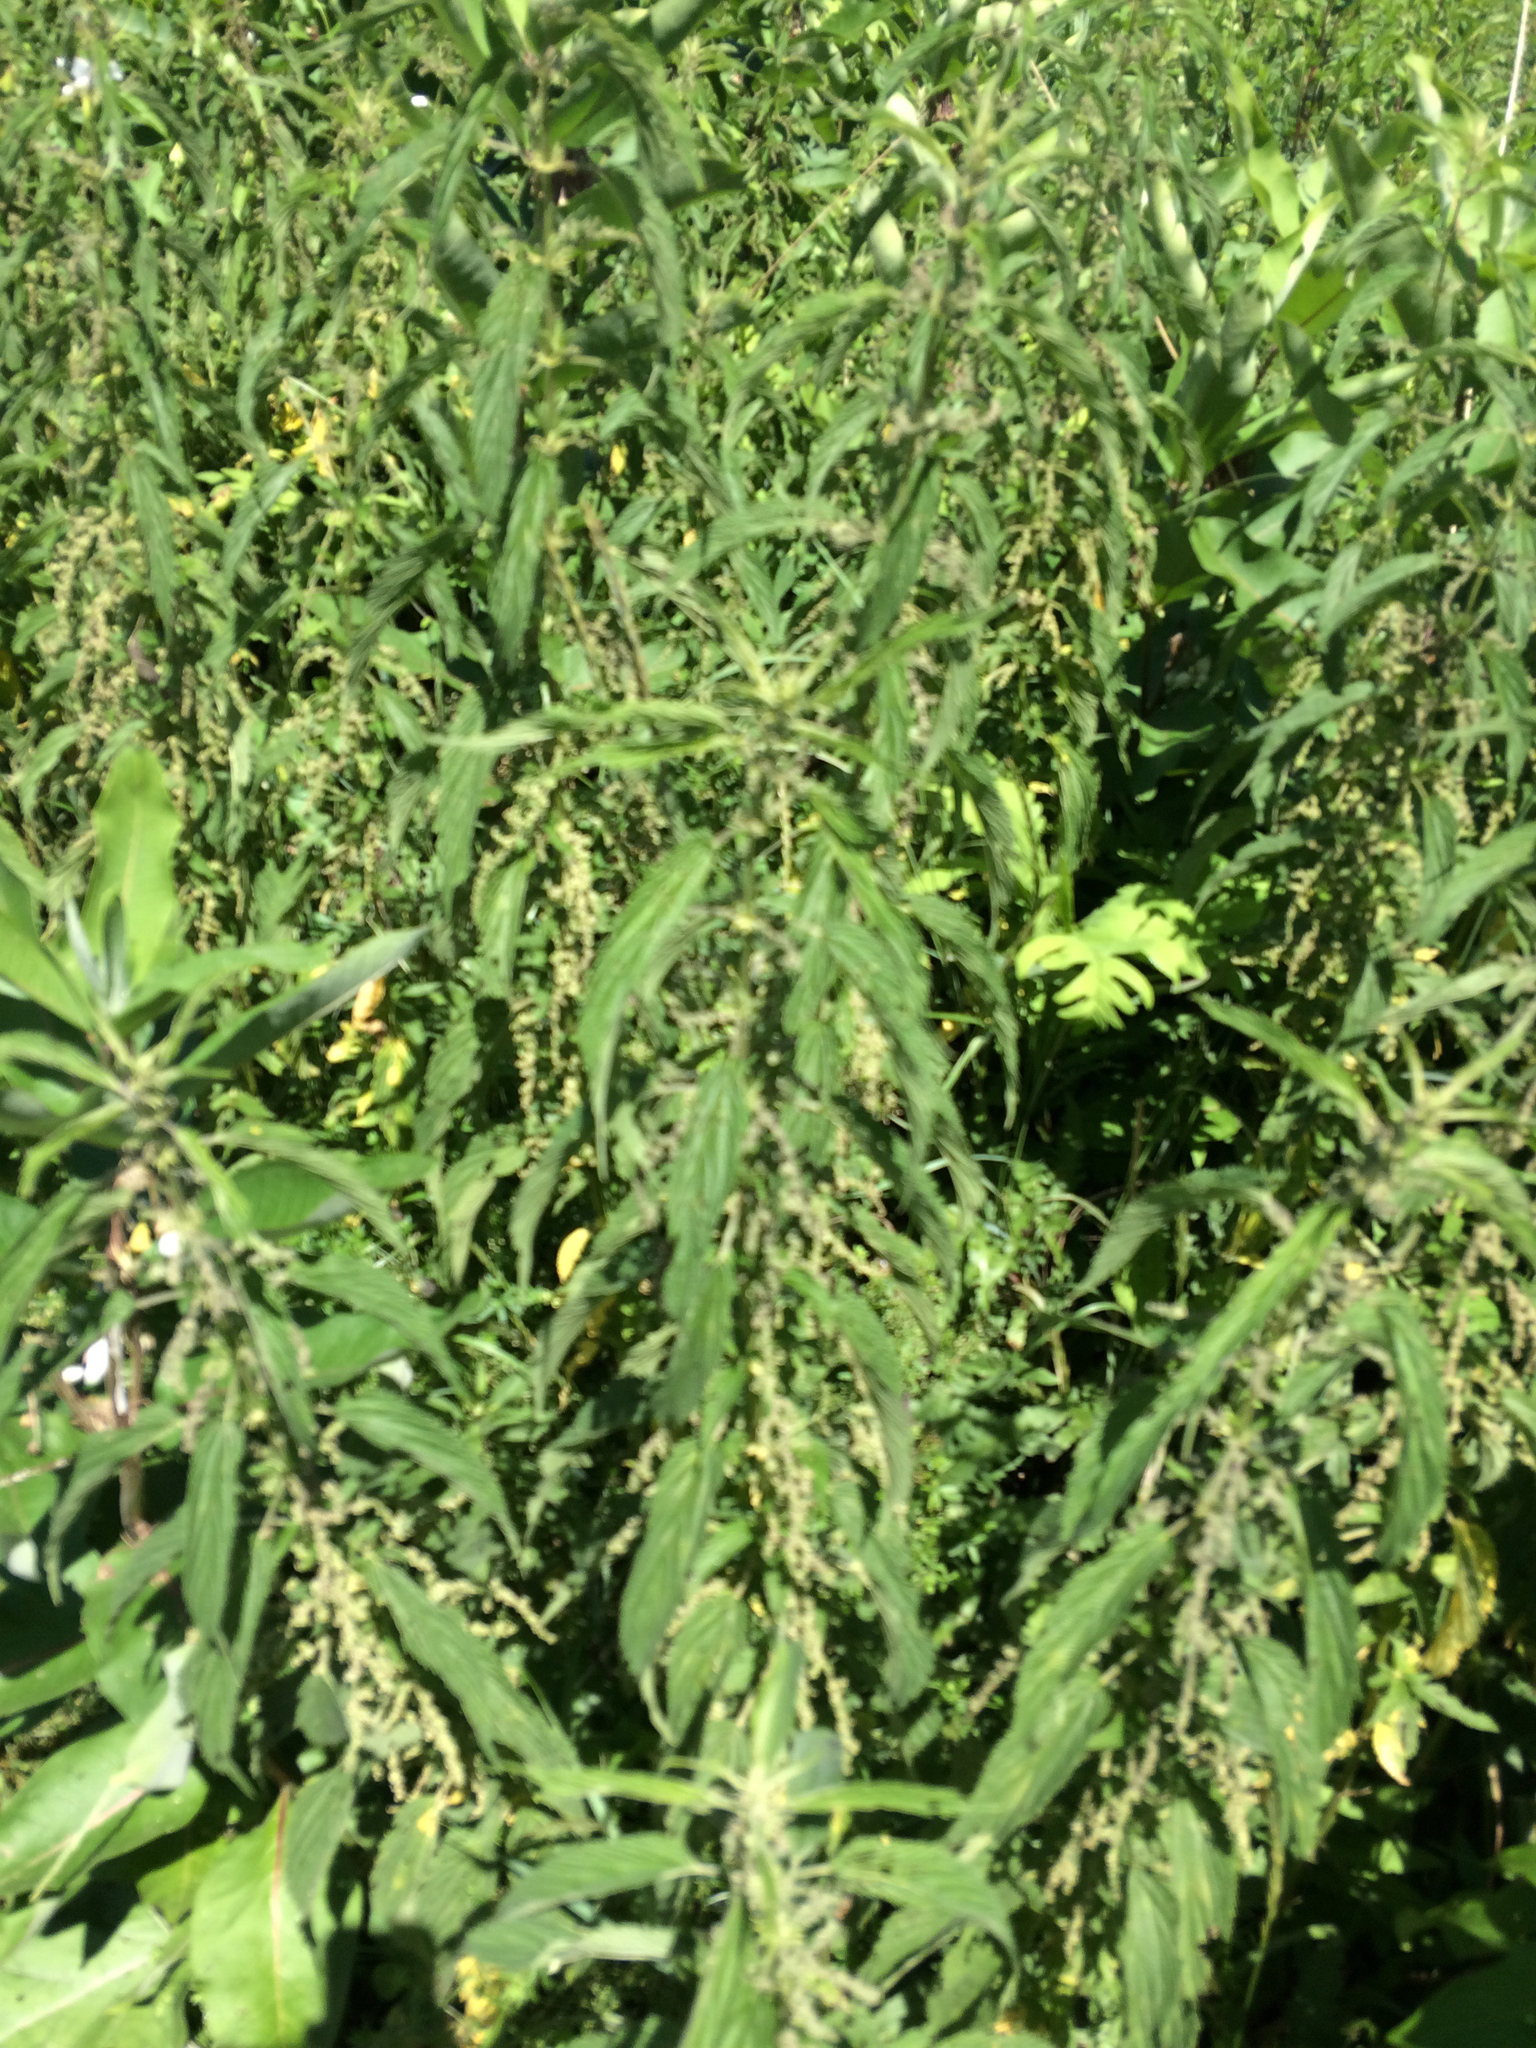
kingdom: Plantae
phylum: Tracheophyta
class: Magnoliopsida
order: Rosales
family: Urticaceae
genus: Urtica
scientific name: Urtica dioica
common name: Common nettle
